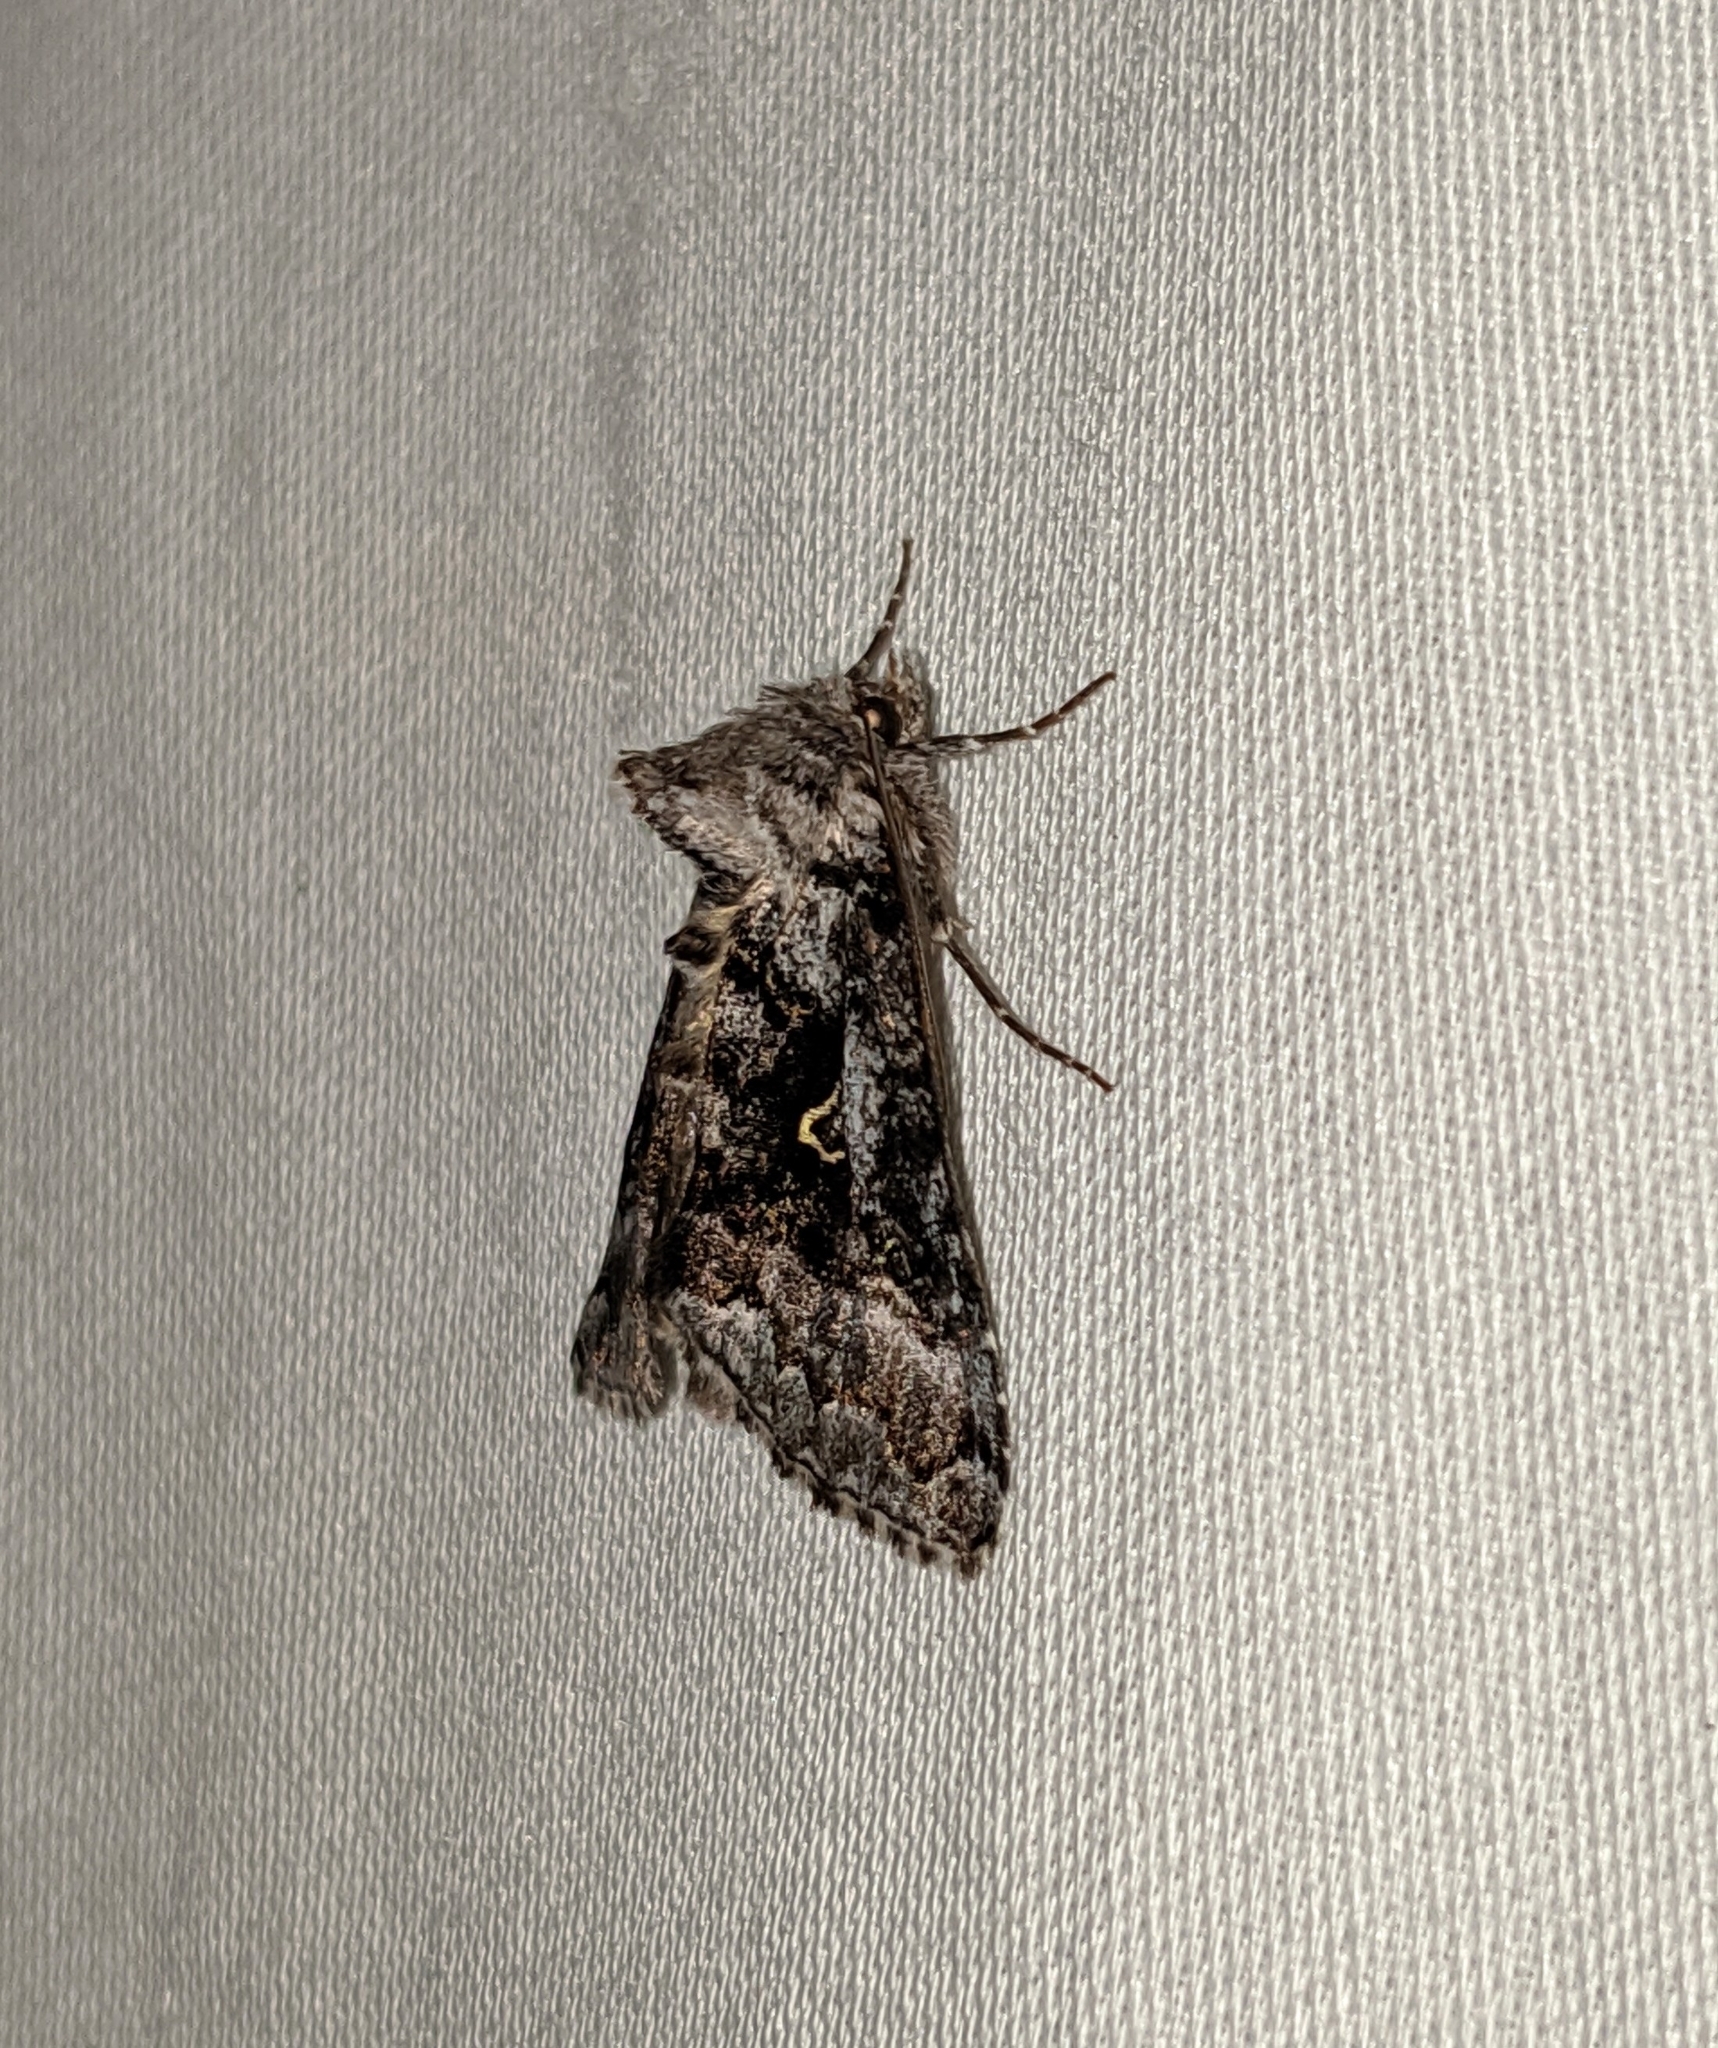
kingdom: Animalia
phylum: Arthropoda
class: Insecta
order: Lepidoptera
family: Noctuidae
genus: Syngrapha
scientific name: Syngrapha celsa
